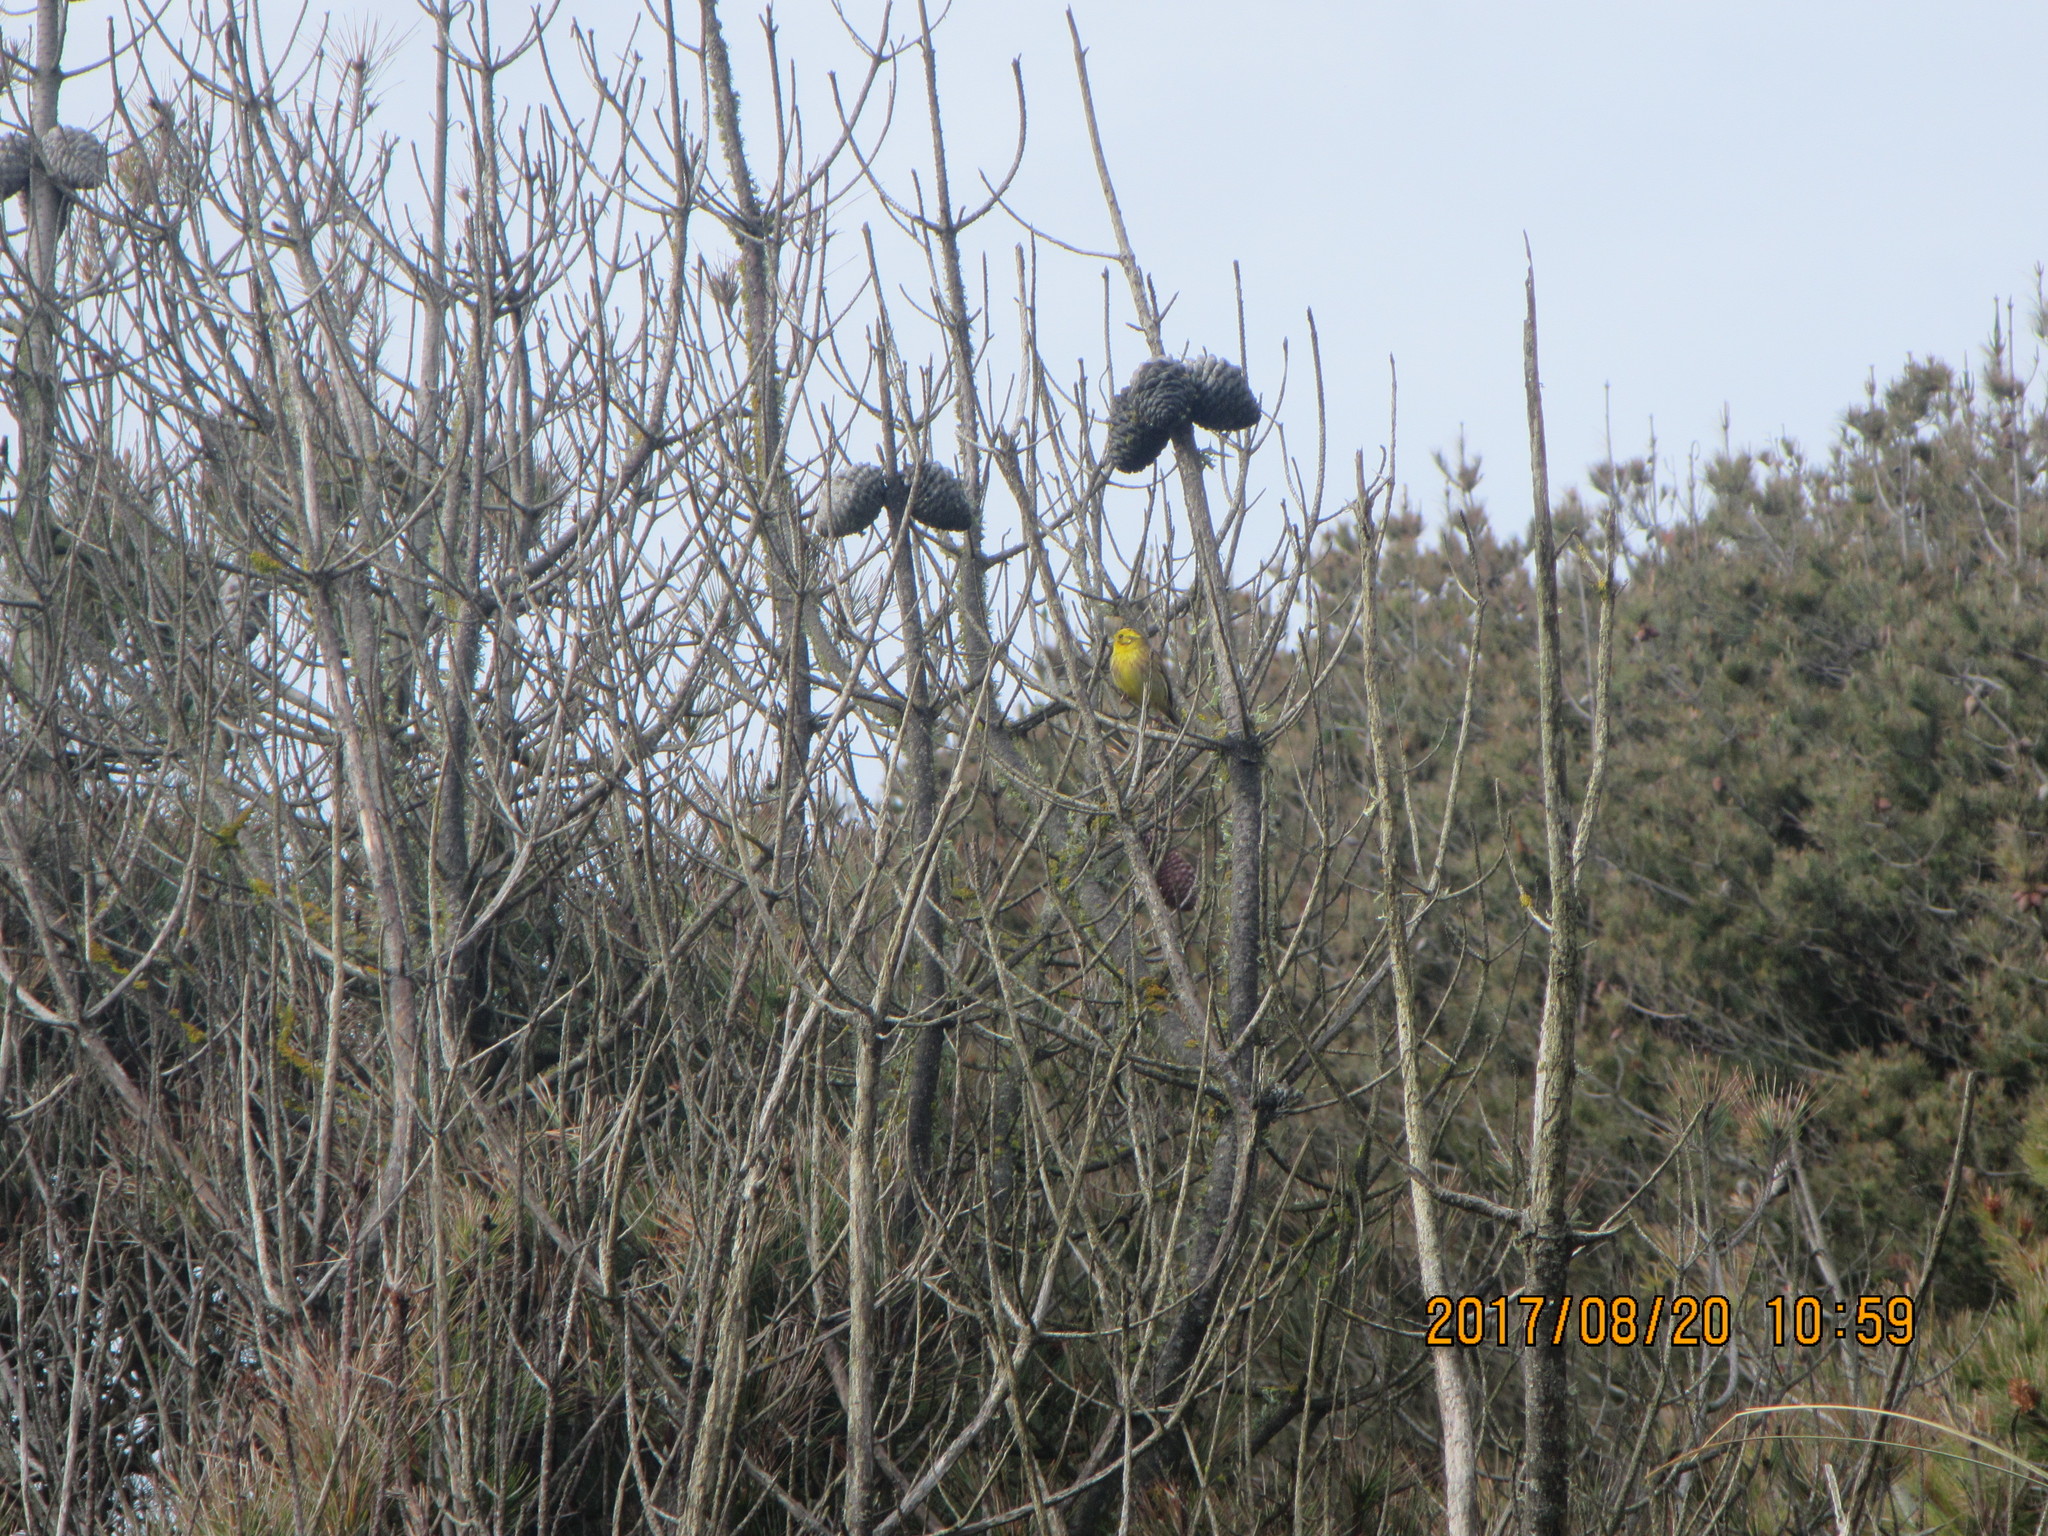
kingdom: Animalia
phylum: Chordata
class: Aves
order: Passeriformes
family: Emberizidae
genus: Emberiza
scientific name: Emberiza citrinella
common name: Yellowhammer
